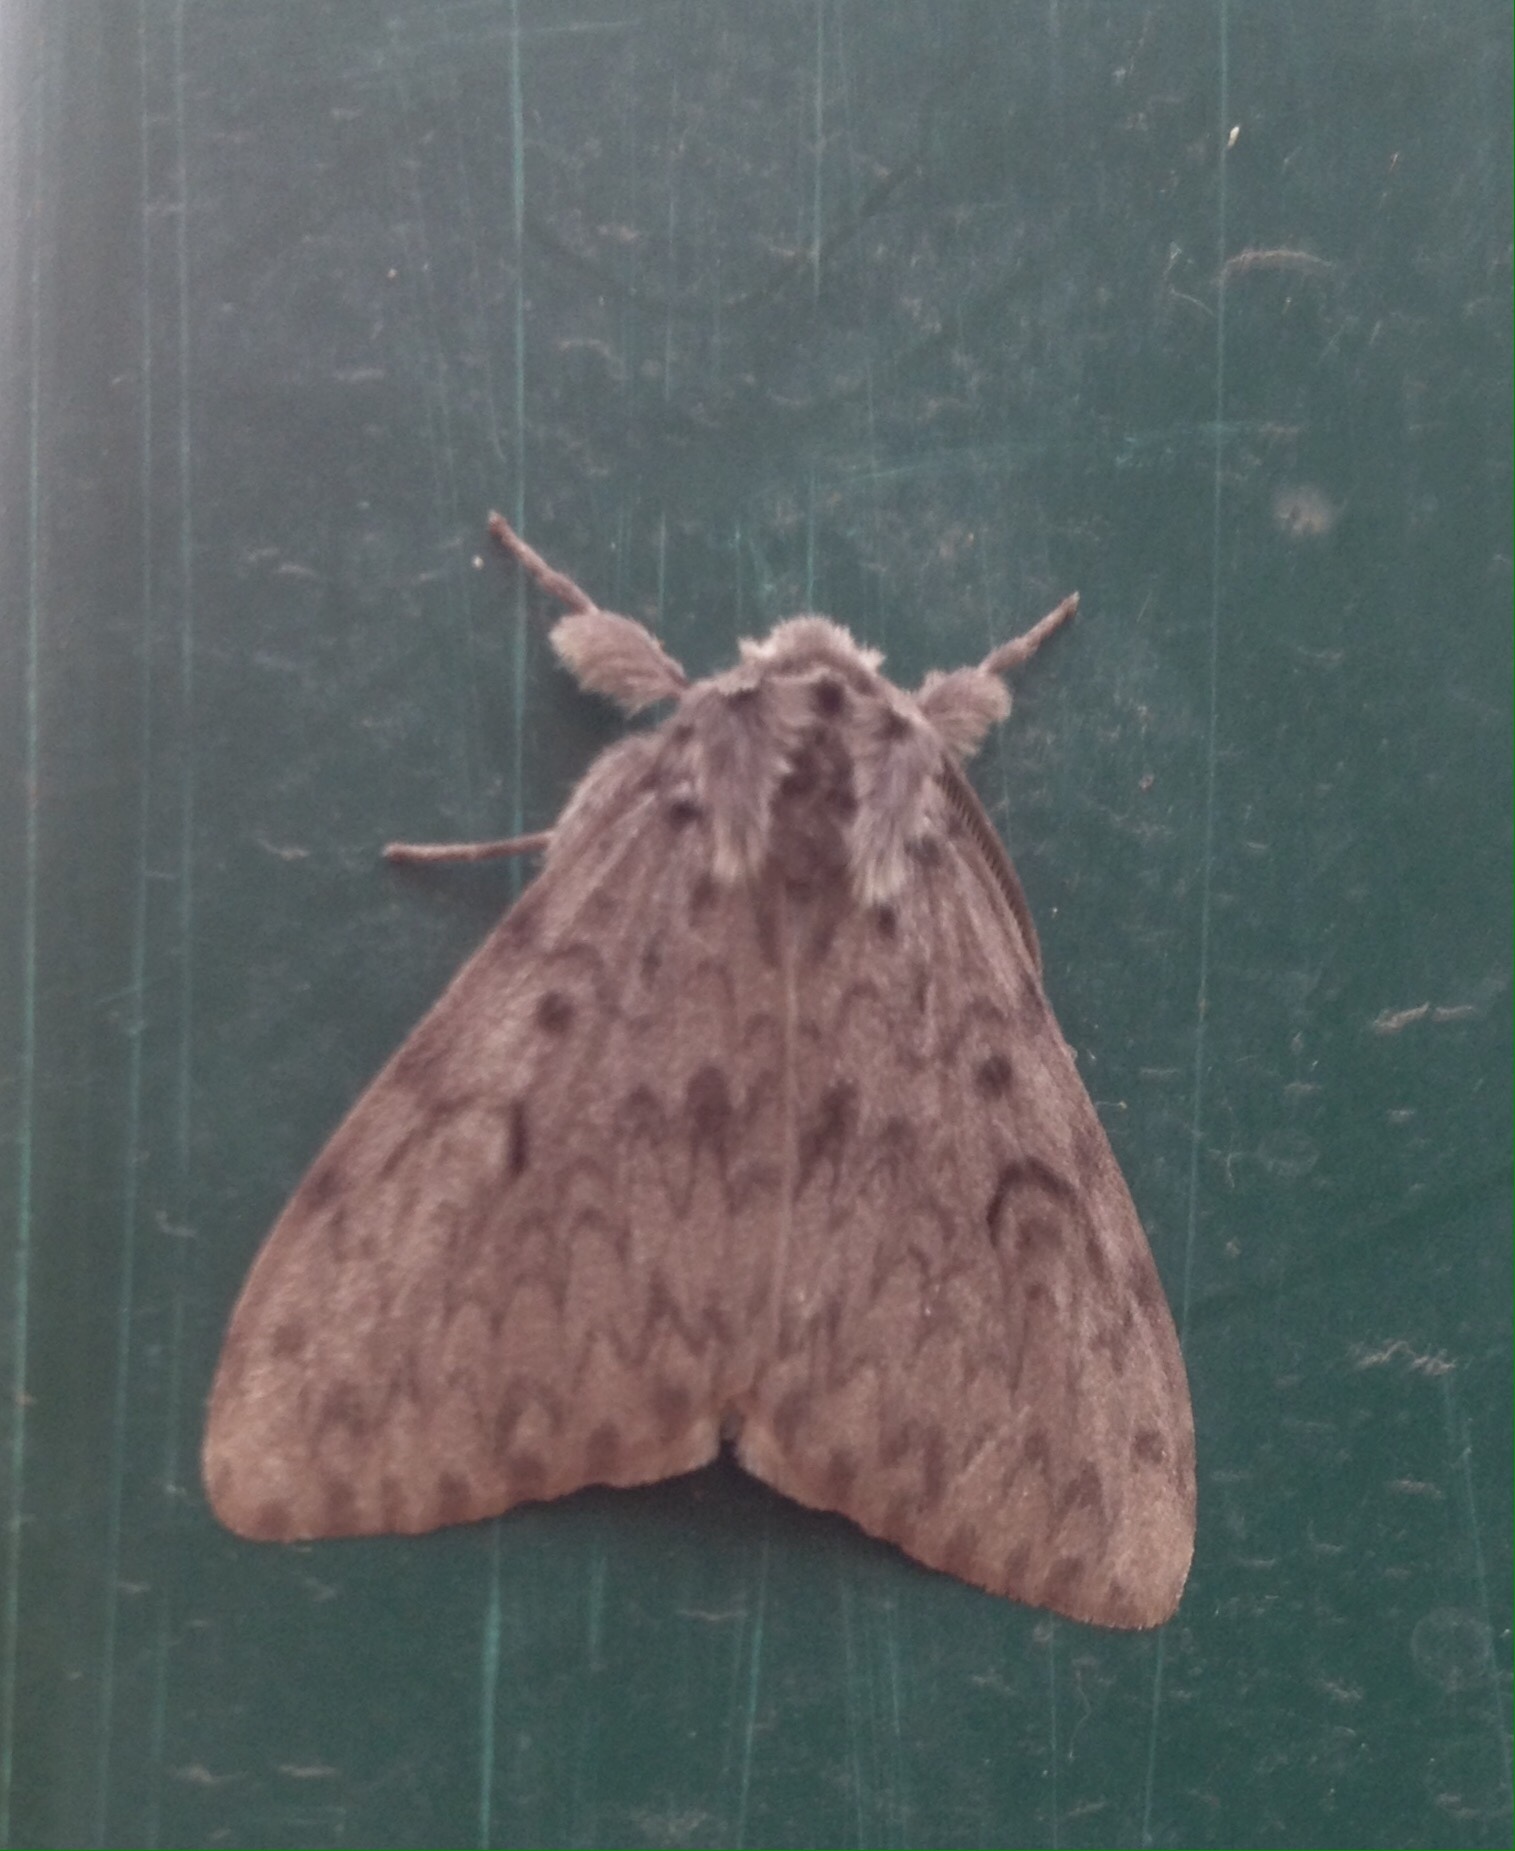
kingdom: Animalia
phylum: Arthropoda
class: Insecta
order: Lepidoptera
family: Erebidae
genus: Lymantria
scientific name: Lymantria monacha
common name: Black arches
